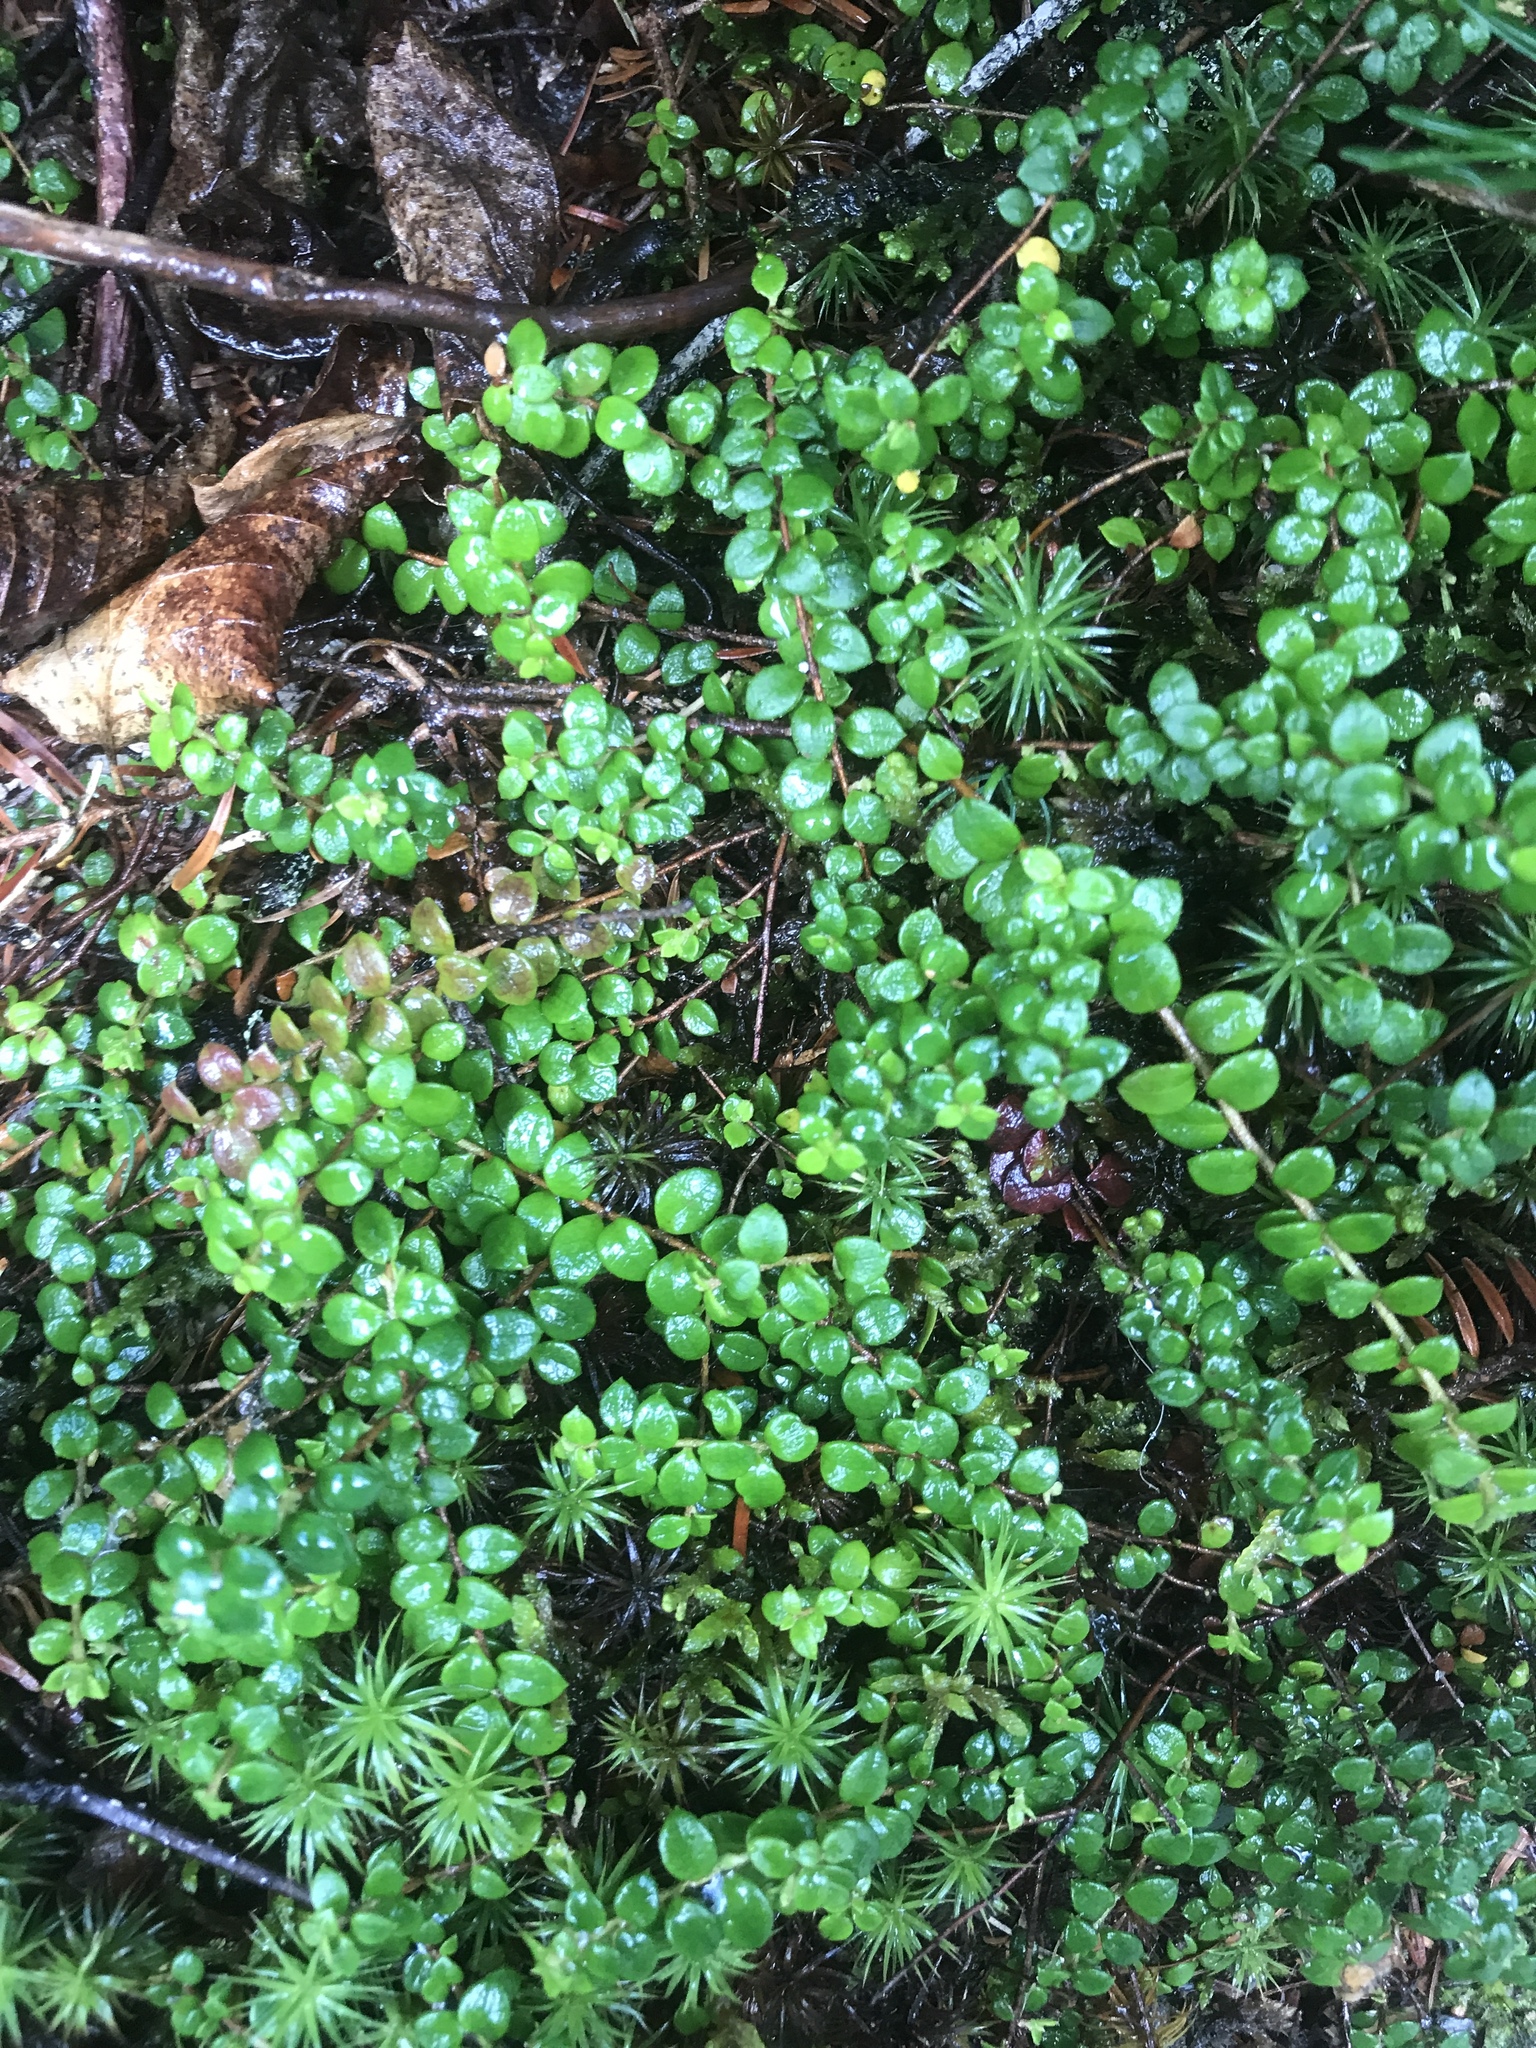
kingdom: Plantae
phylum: Tracheophyta
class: Magnoliopsida
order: Ericales
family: Ericaceae
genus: Gaultheria
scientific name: Gaultheria hispidula
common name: Cancer wintergreen
